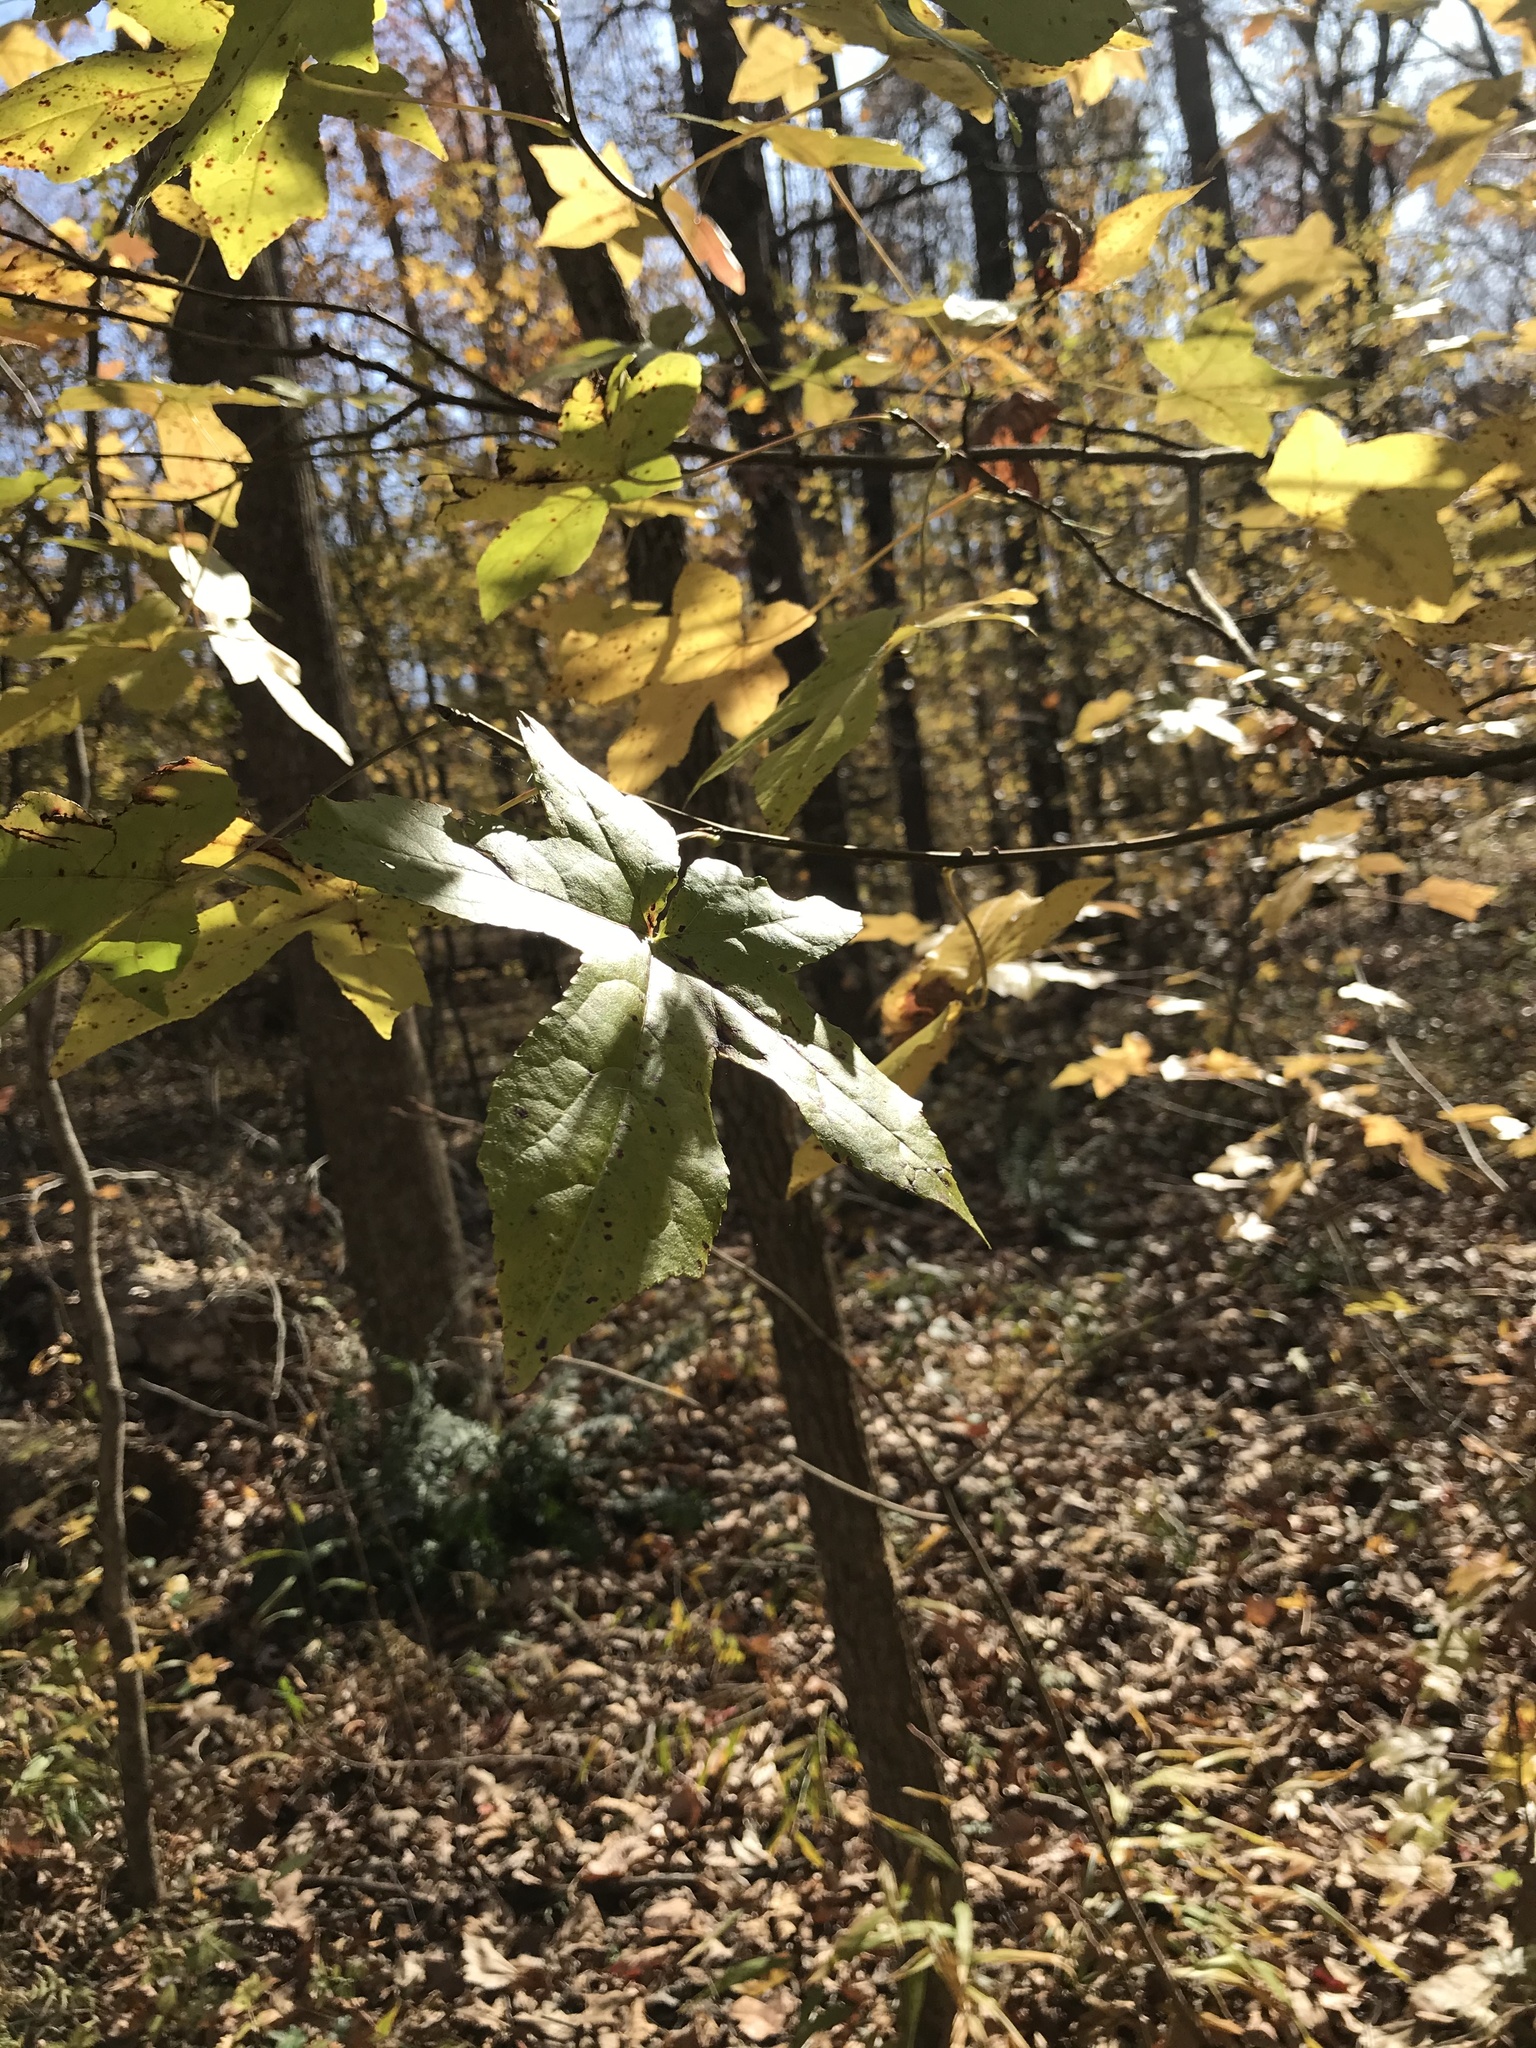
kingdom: Plantae
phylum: Tracheophyta
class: Magnoliopsida
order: Saxifragales
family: Altingiaceae
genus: Liquidambar
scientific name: Liquidambar styraciflua
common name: Sweet gum
